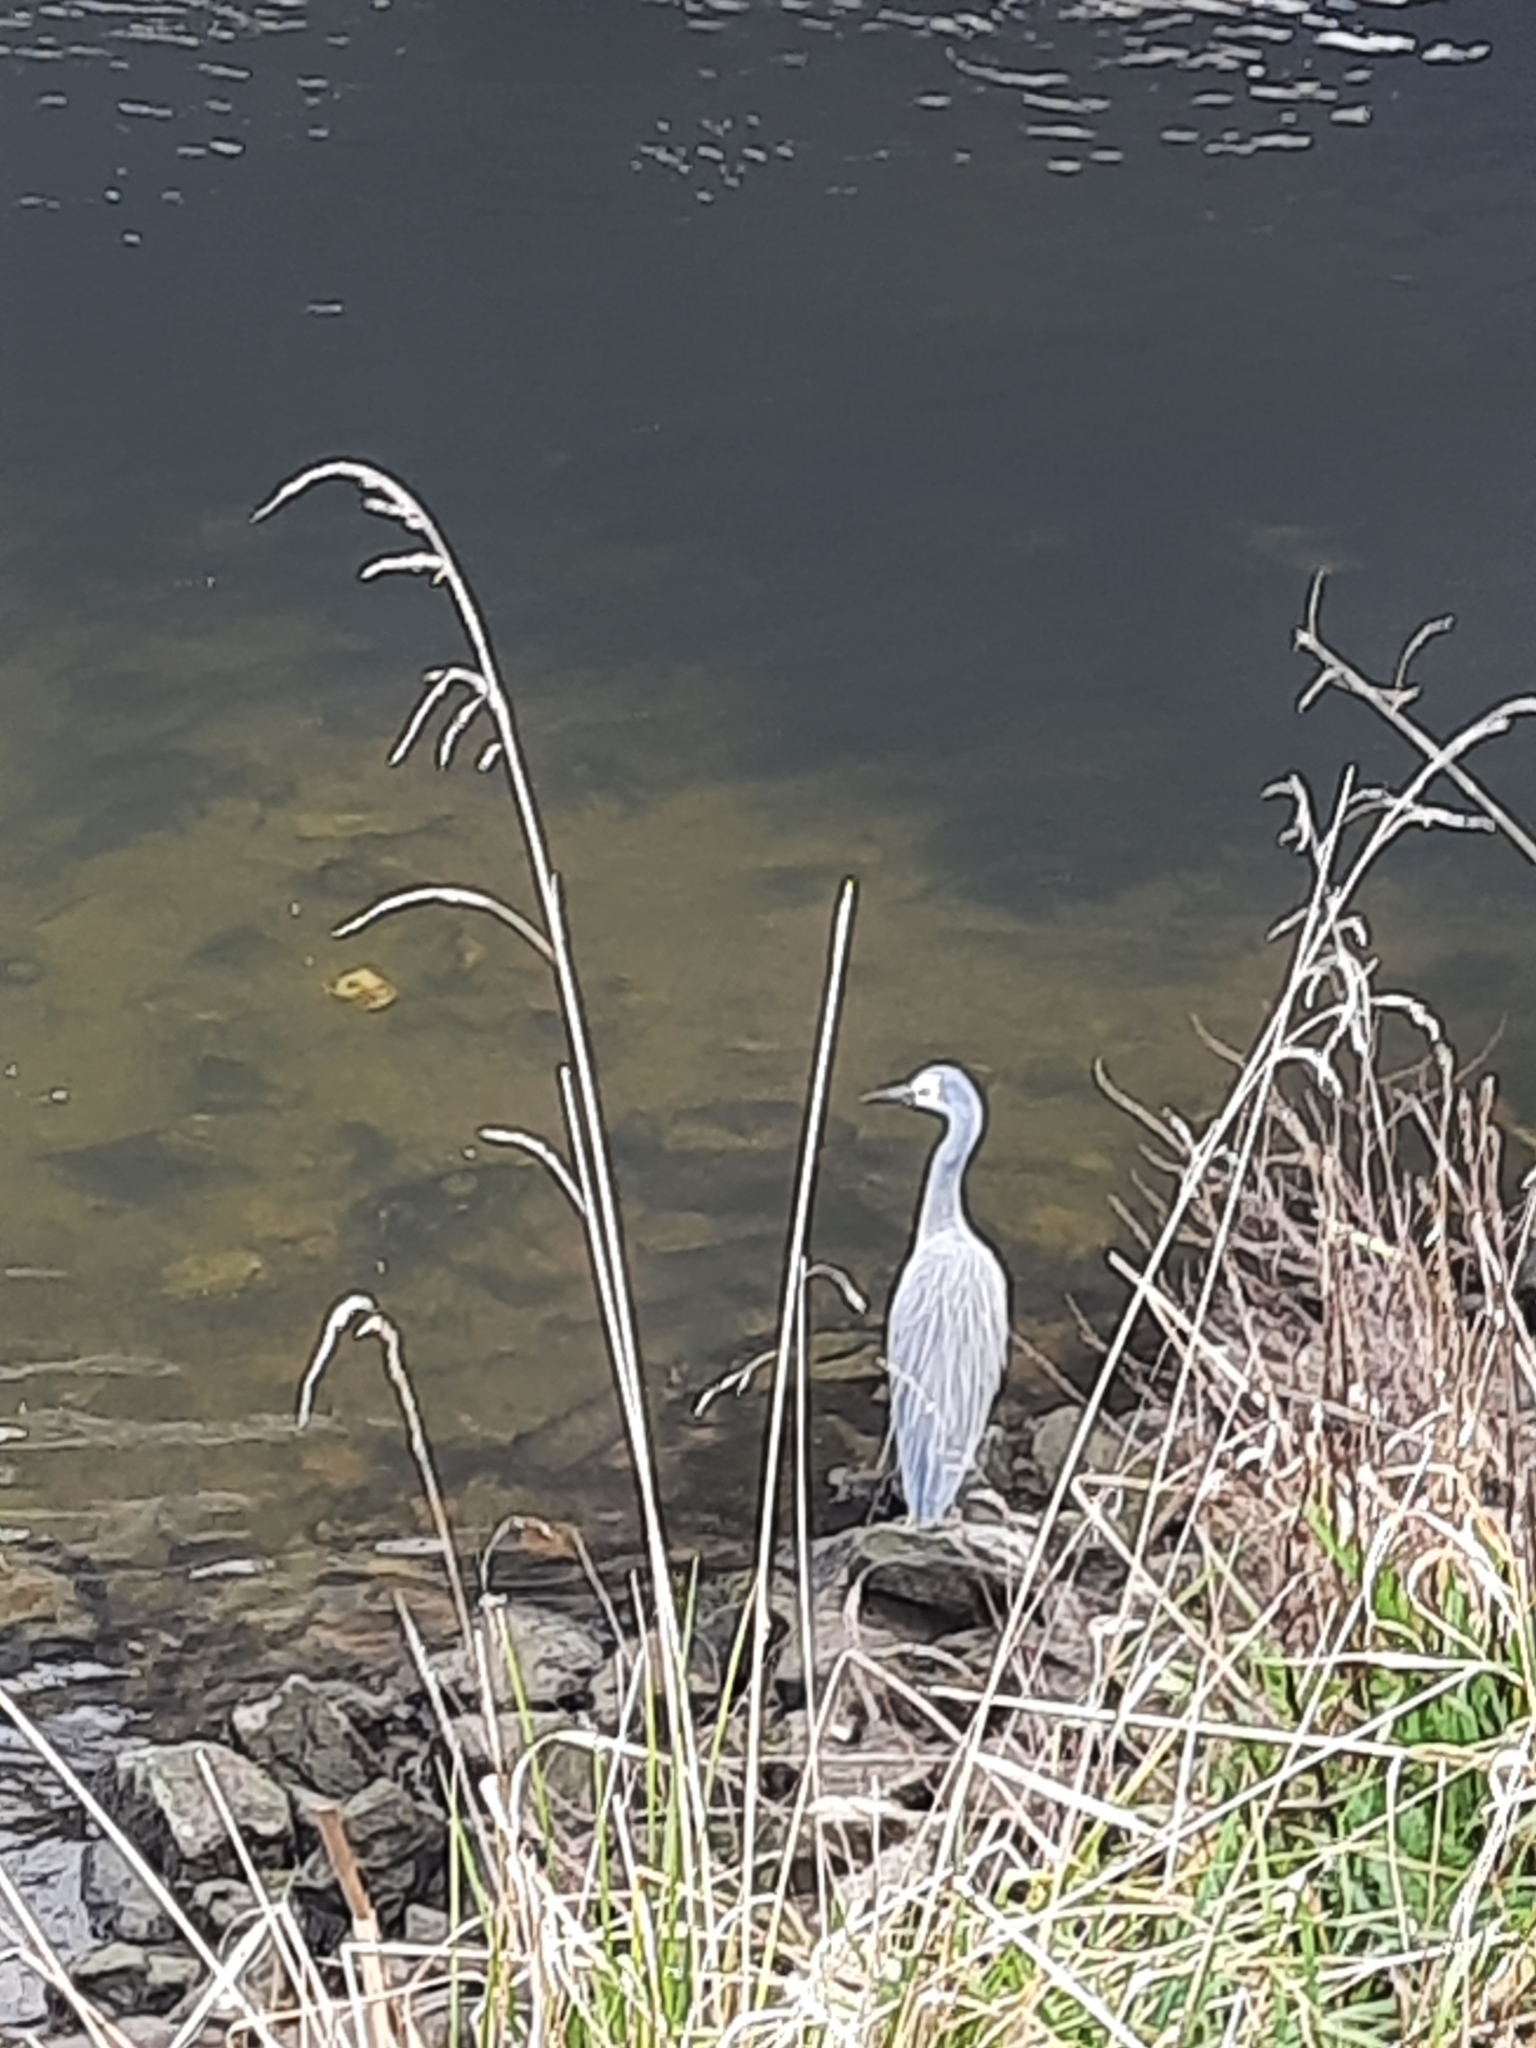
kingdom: Animalia
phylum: Chordata
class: Aves
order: Pelecaniformes
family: Ardeidae
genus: Egretta
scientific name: Egretta novaehollandiae
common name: White-faced heron
